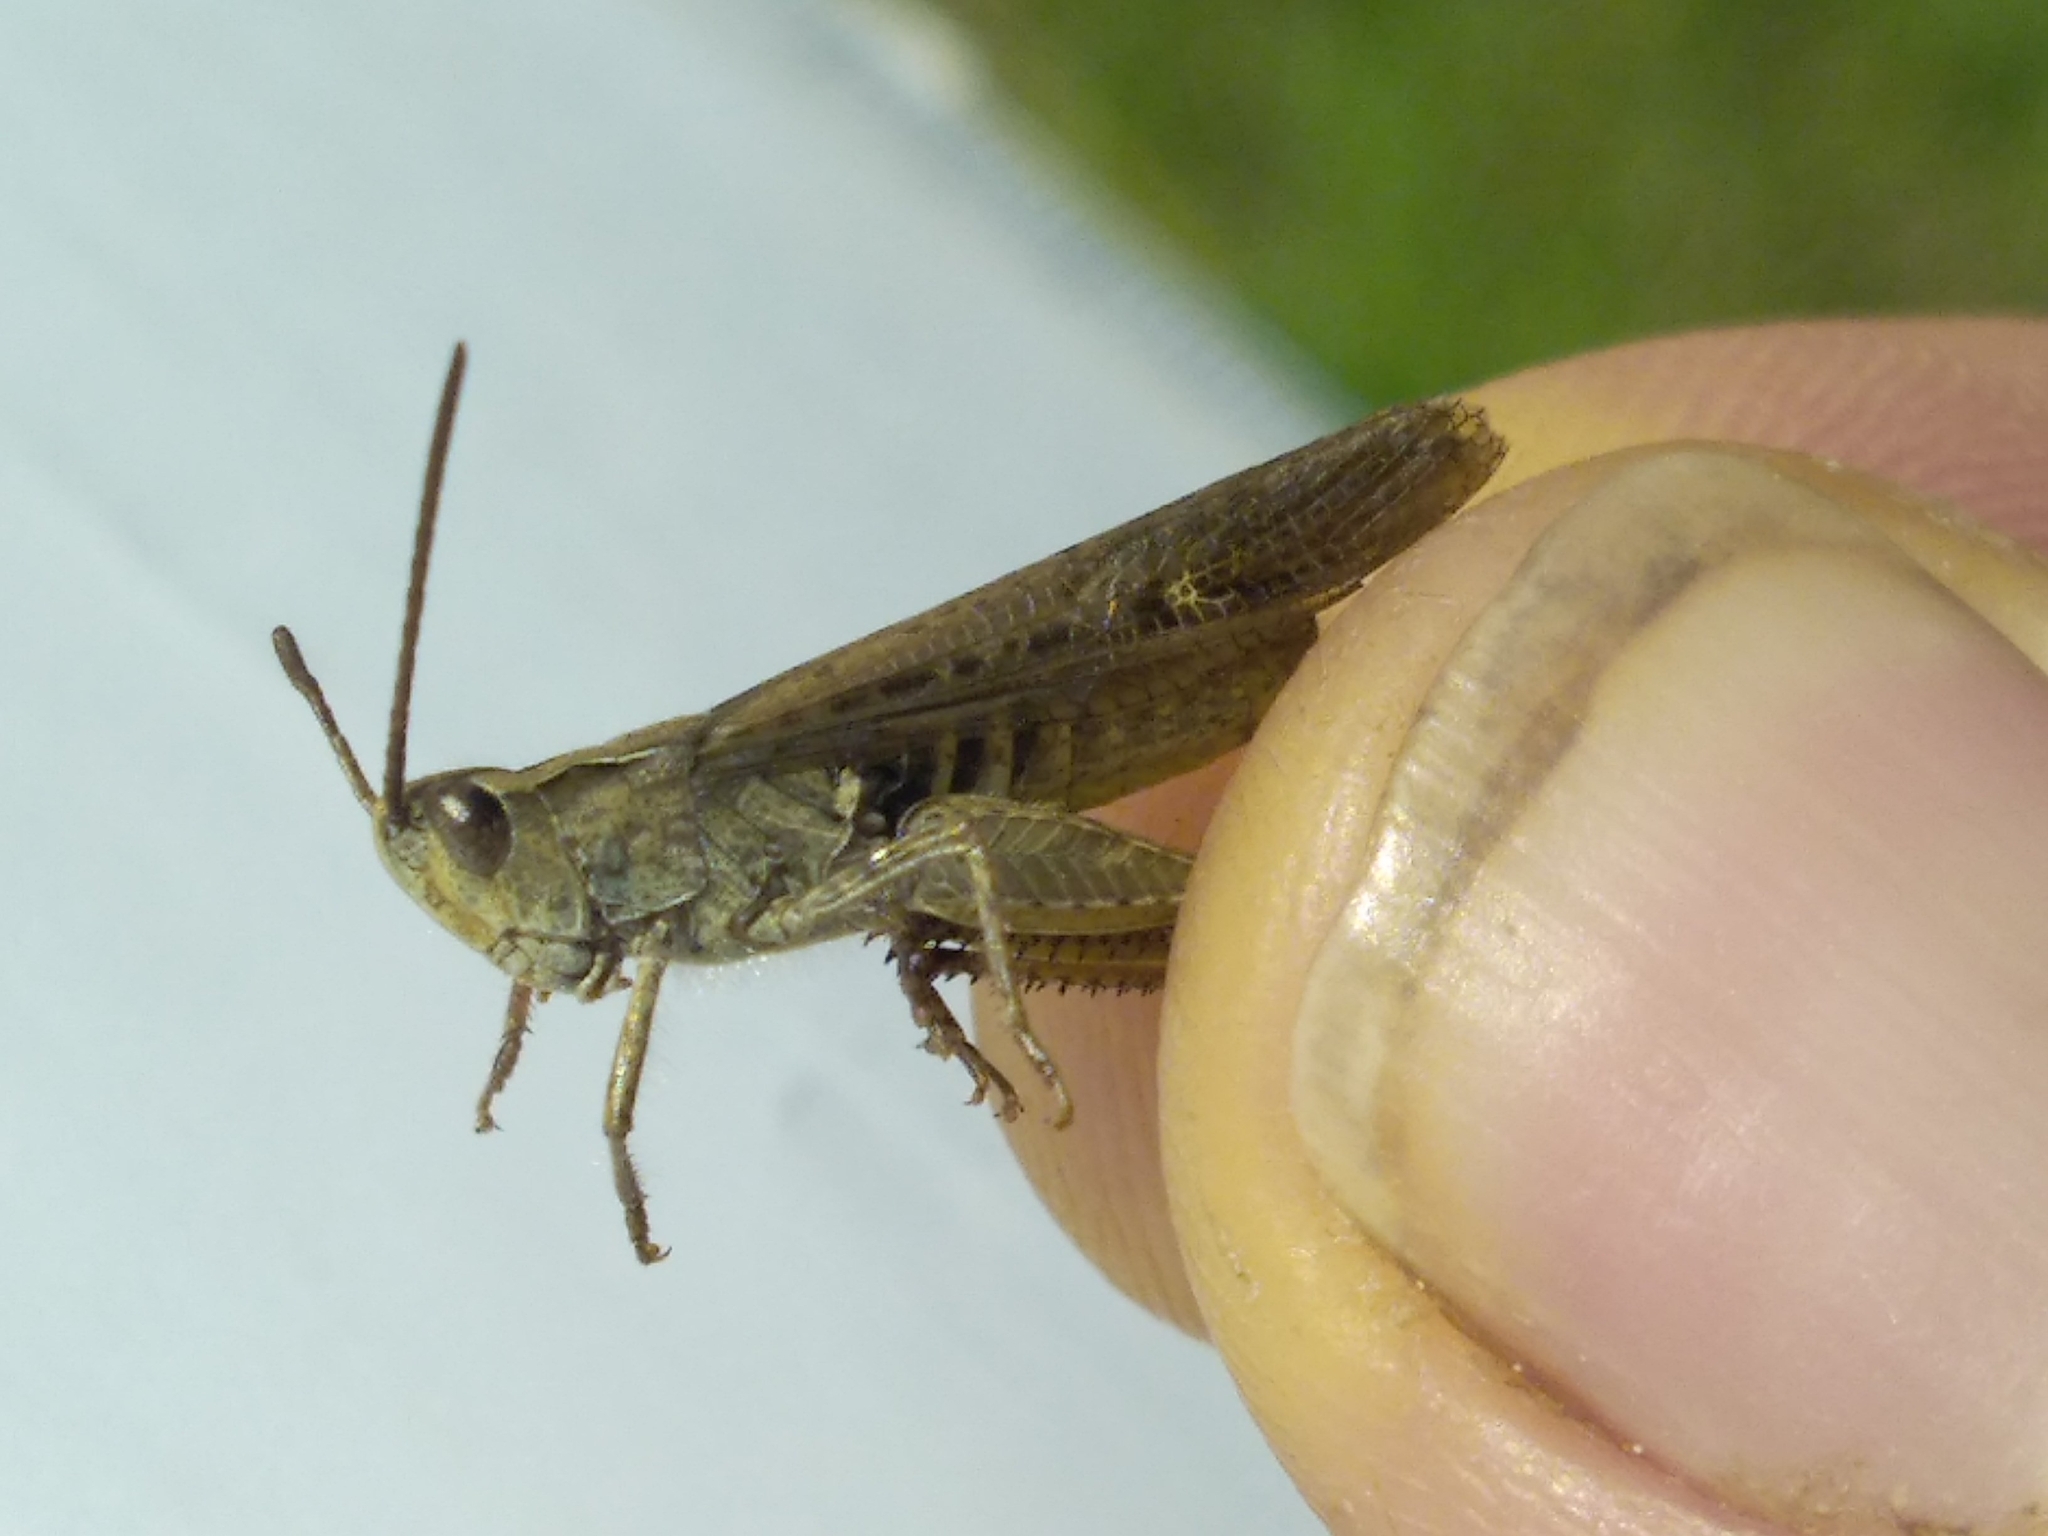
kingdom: Animalia
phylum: Arthropoda
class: Insecta
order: Orthoptera
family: Acrididae
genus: Chorthippus
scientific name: Chorthippus brunneus
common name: Field grasshopper
